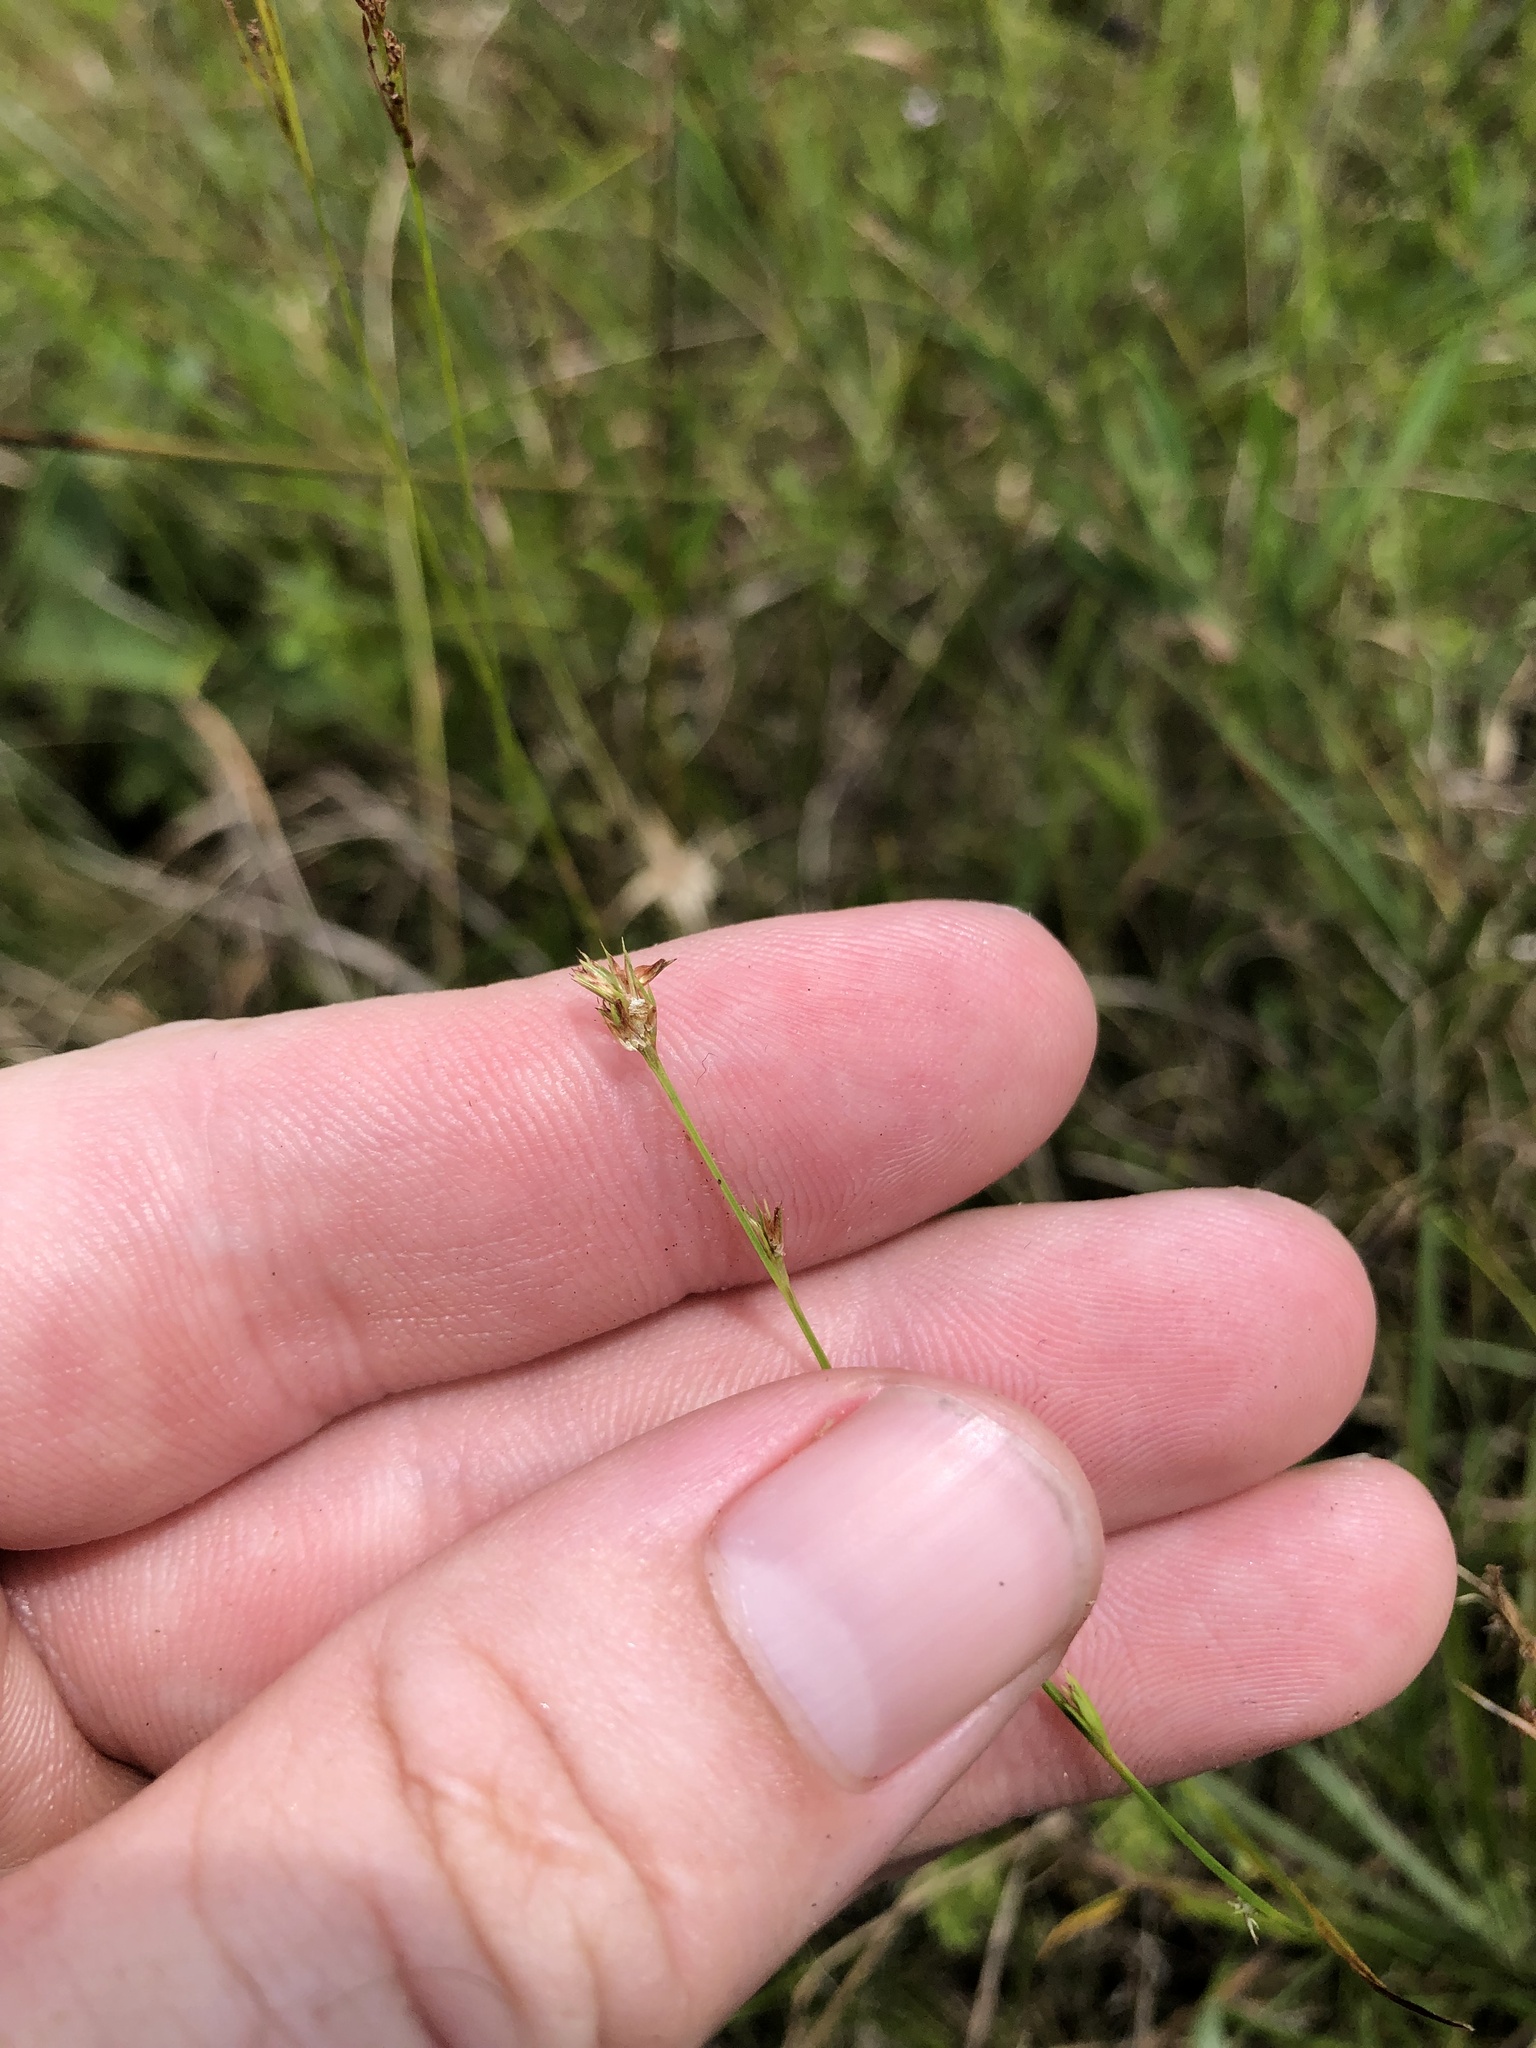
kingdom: Plantae
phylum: Tracheophyta
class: Liliopsida
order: Poales
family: Cyperaceae
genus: Scleria
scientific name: Scleria verticillata
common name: Low nutrush
